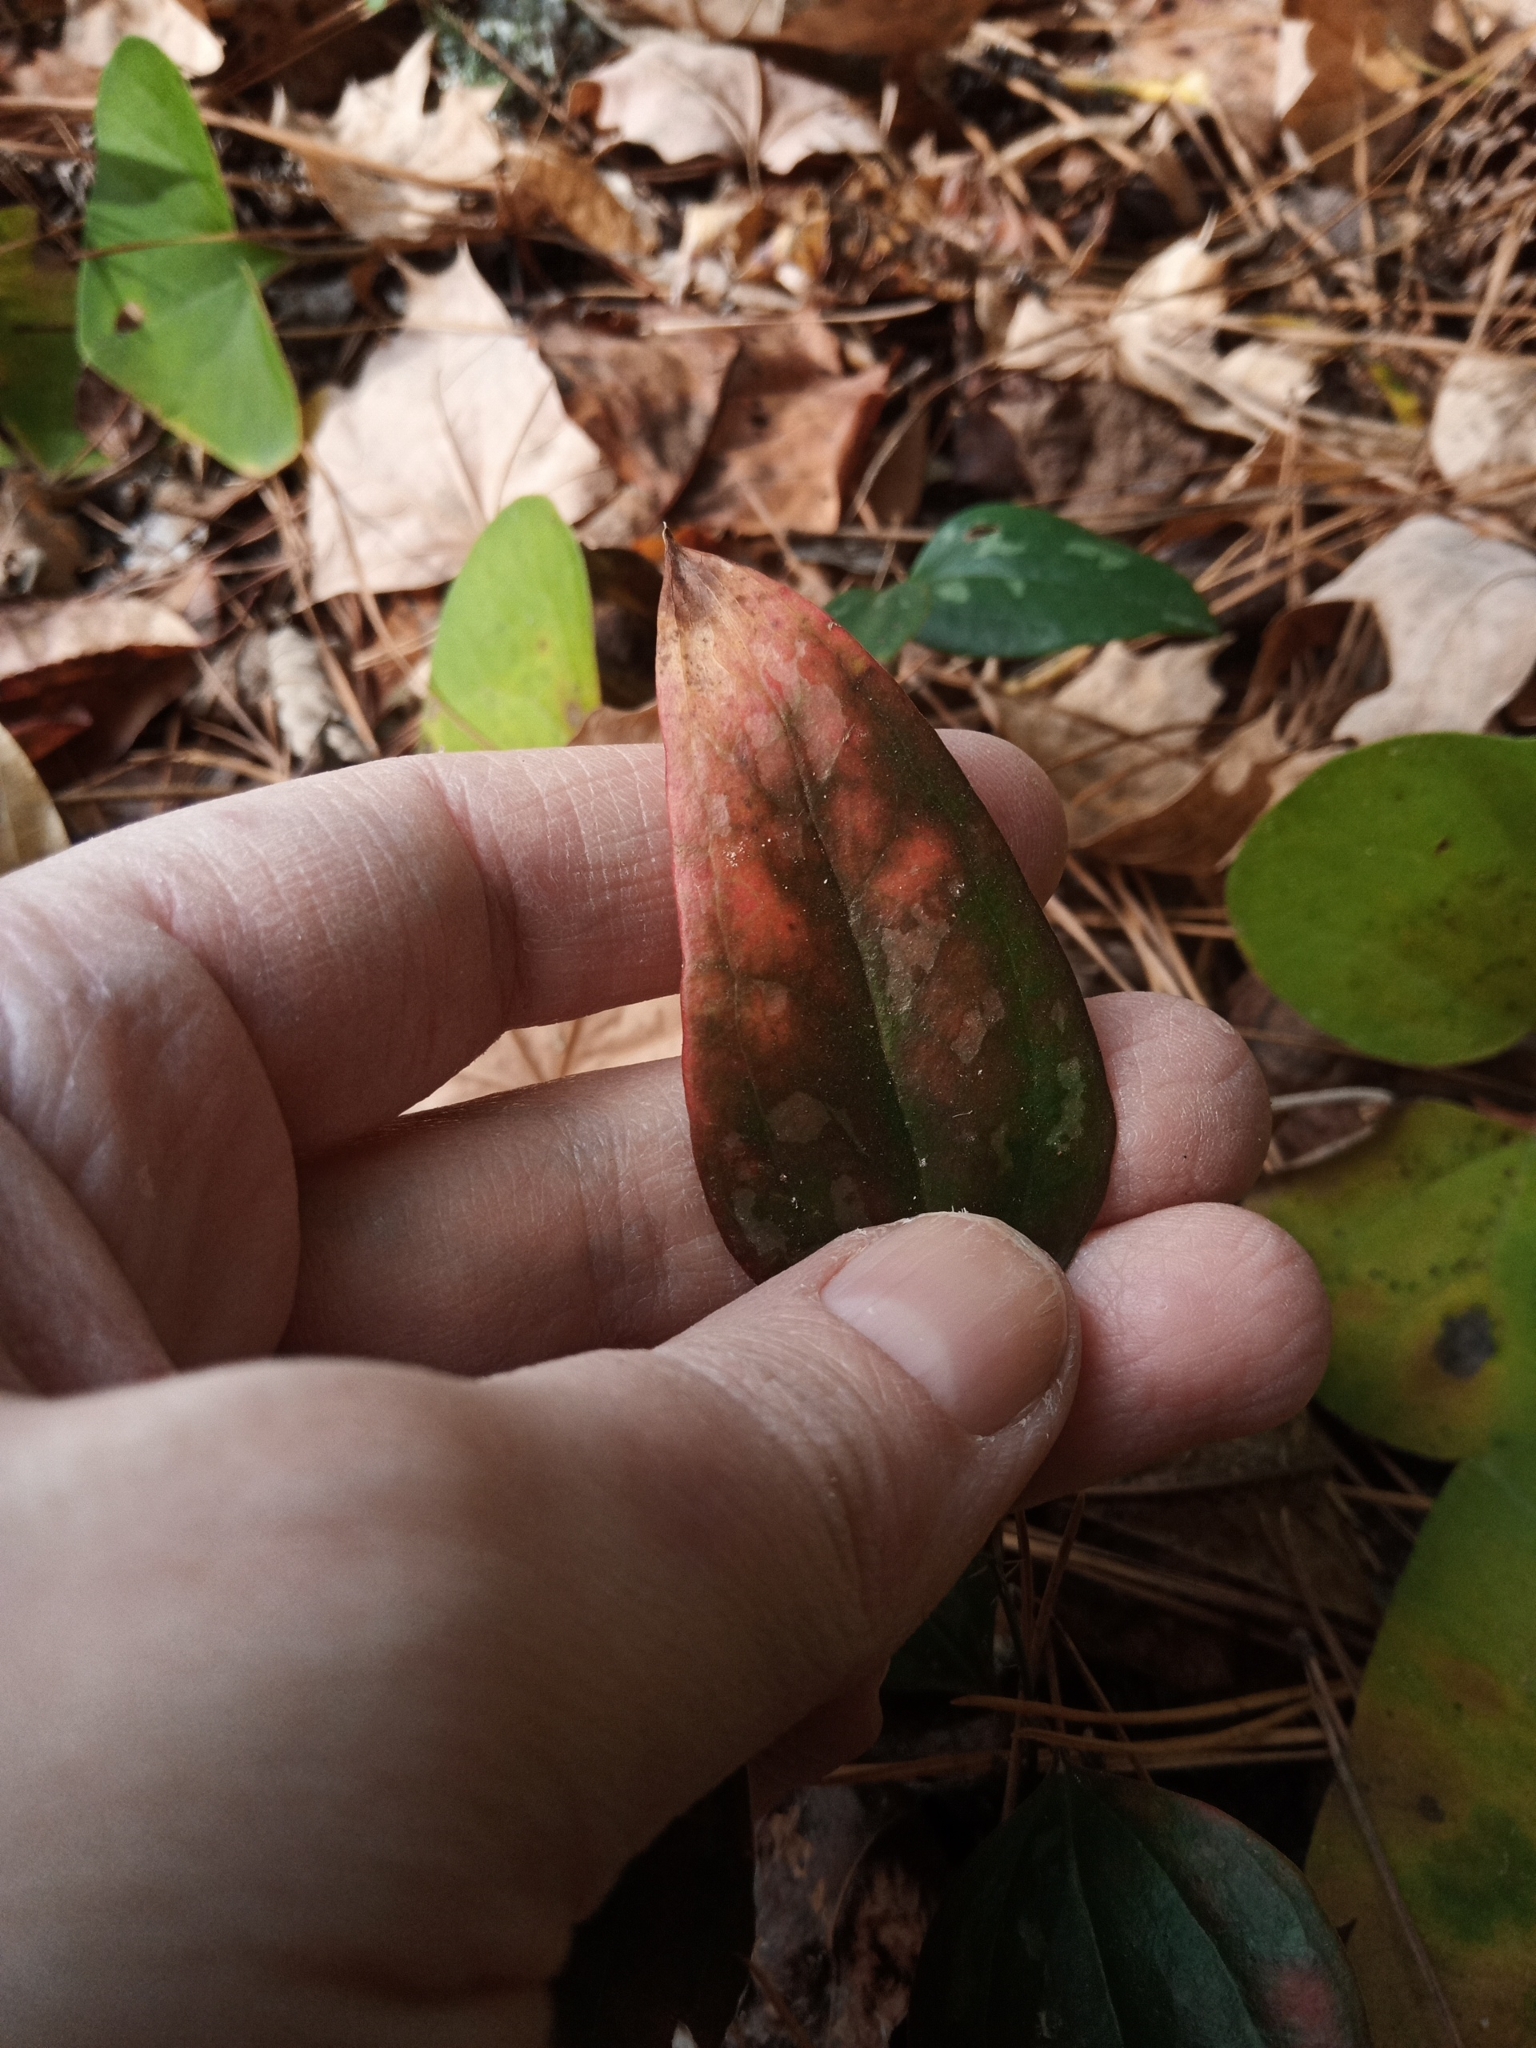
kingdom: Plantae
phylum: Tracheophyta
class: Liliopsida
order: Liliales
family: Smilacaceae
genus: Smilax
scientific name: Smilax glauca
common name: Cat greenbrier
